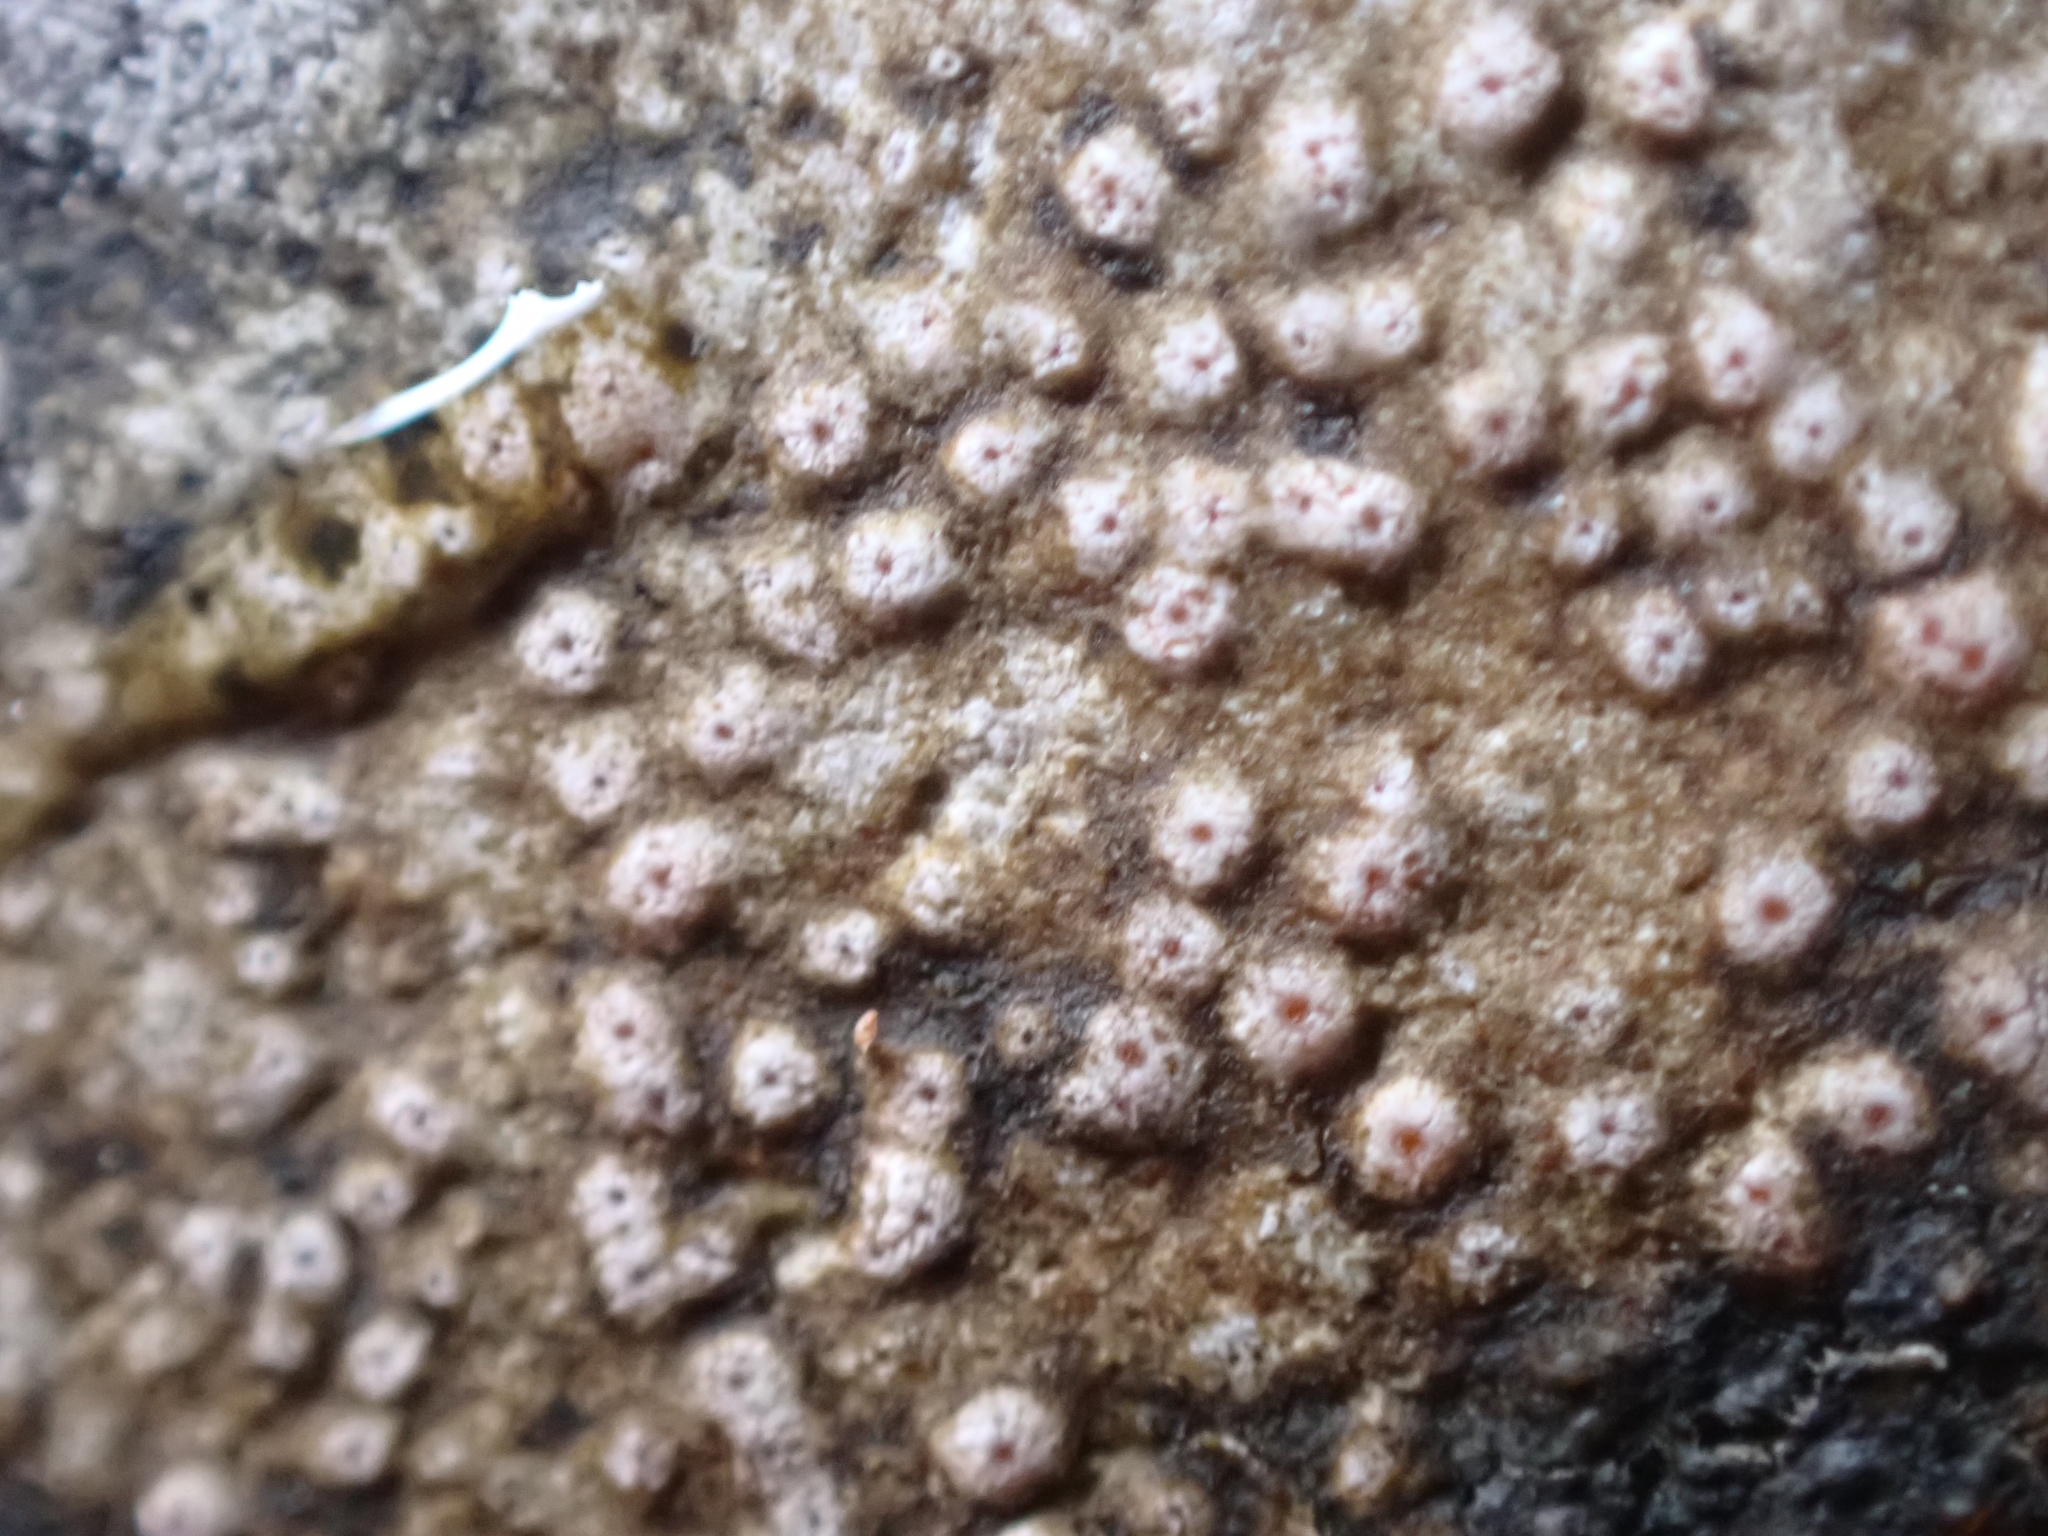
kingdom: Fungi
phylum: Ascomycota
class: Lecanoromycetes
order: Gyalectales
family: Gyalectaceae
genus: Gyalecta
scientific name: Gyalecta jenensis
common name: Rock dimple lichen
